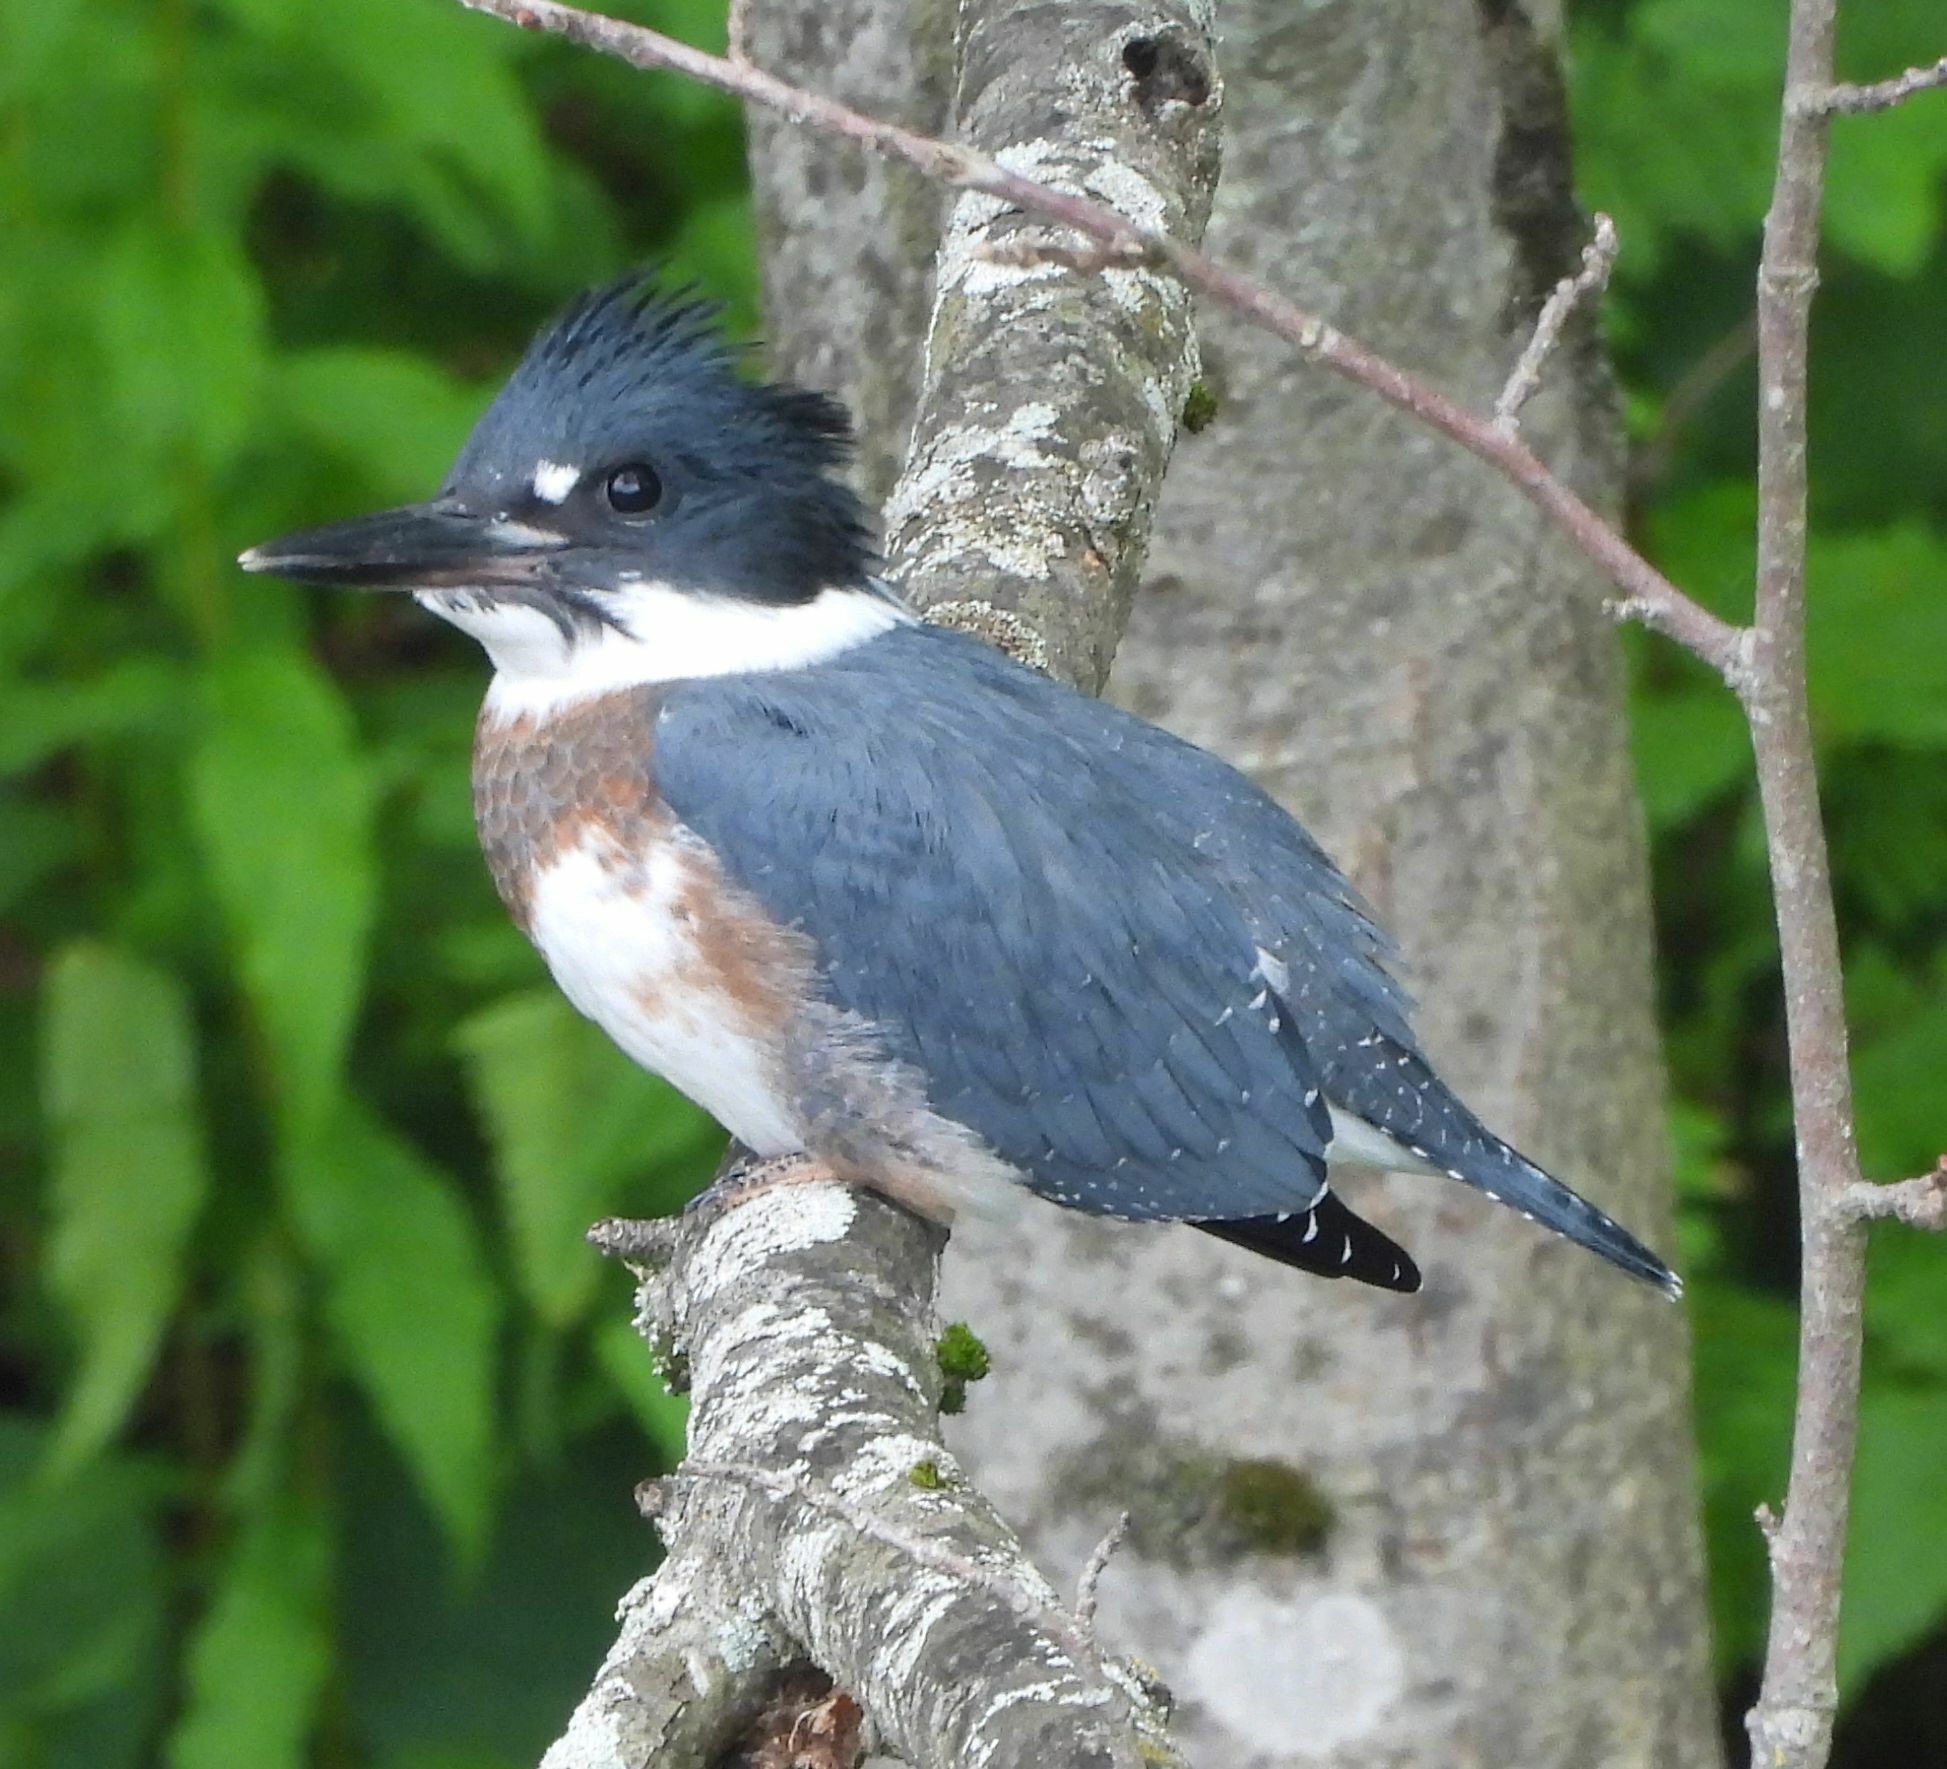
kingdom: Animalia
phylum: Chordata
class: Aves
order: Coraciiformes
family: Alcedinidae
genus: Megaceryle
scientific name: Megaceryle alcyon
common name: Belted kingfisher
